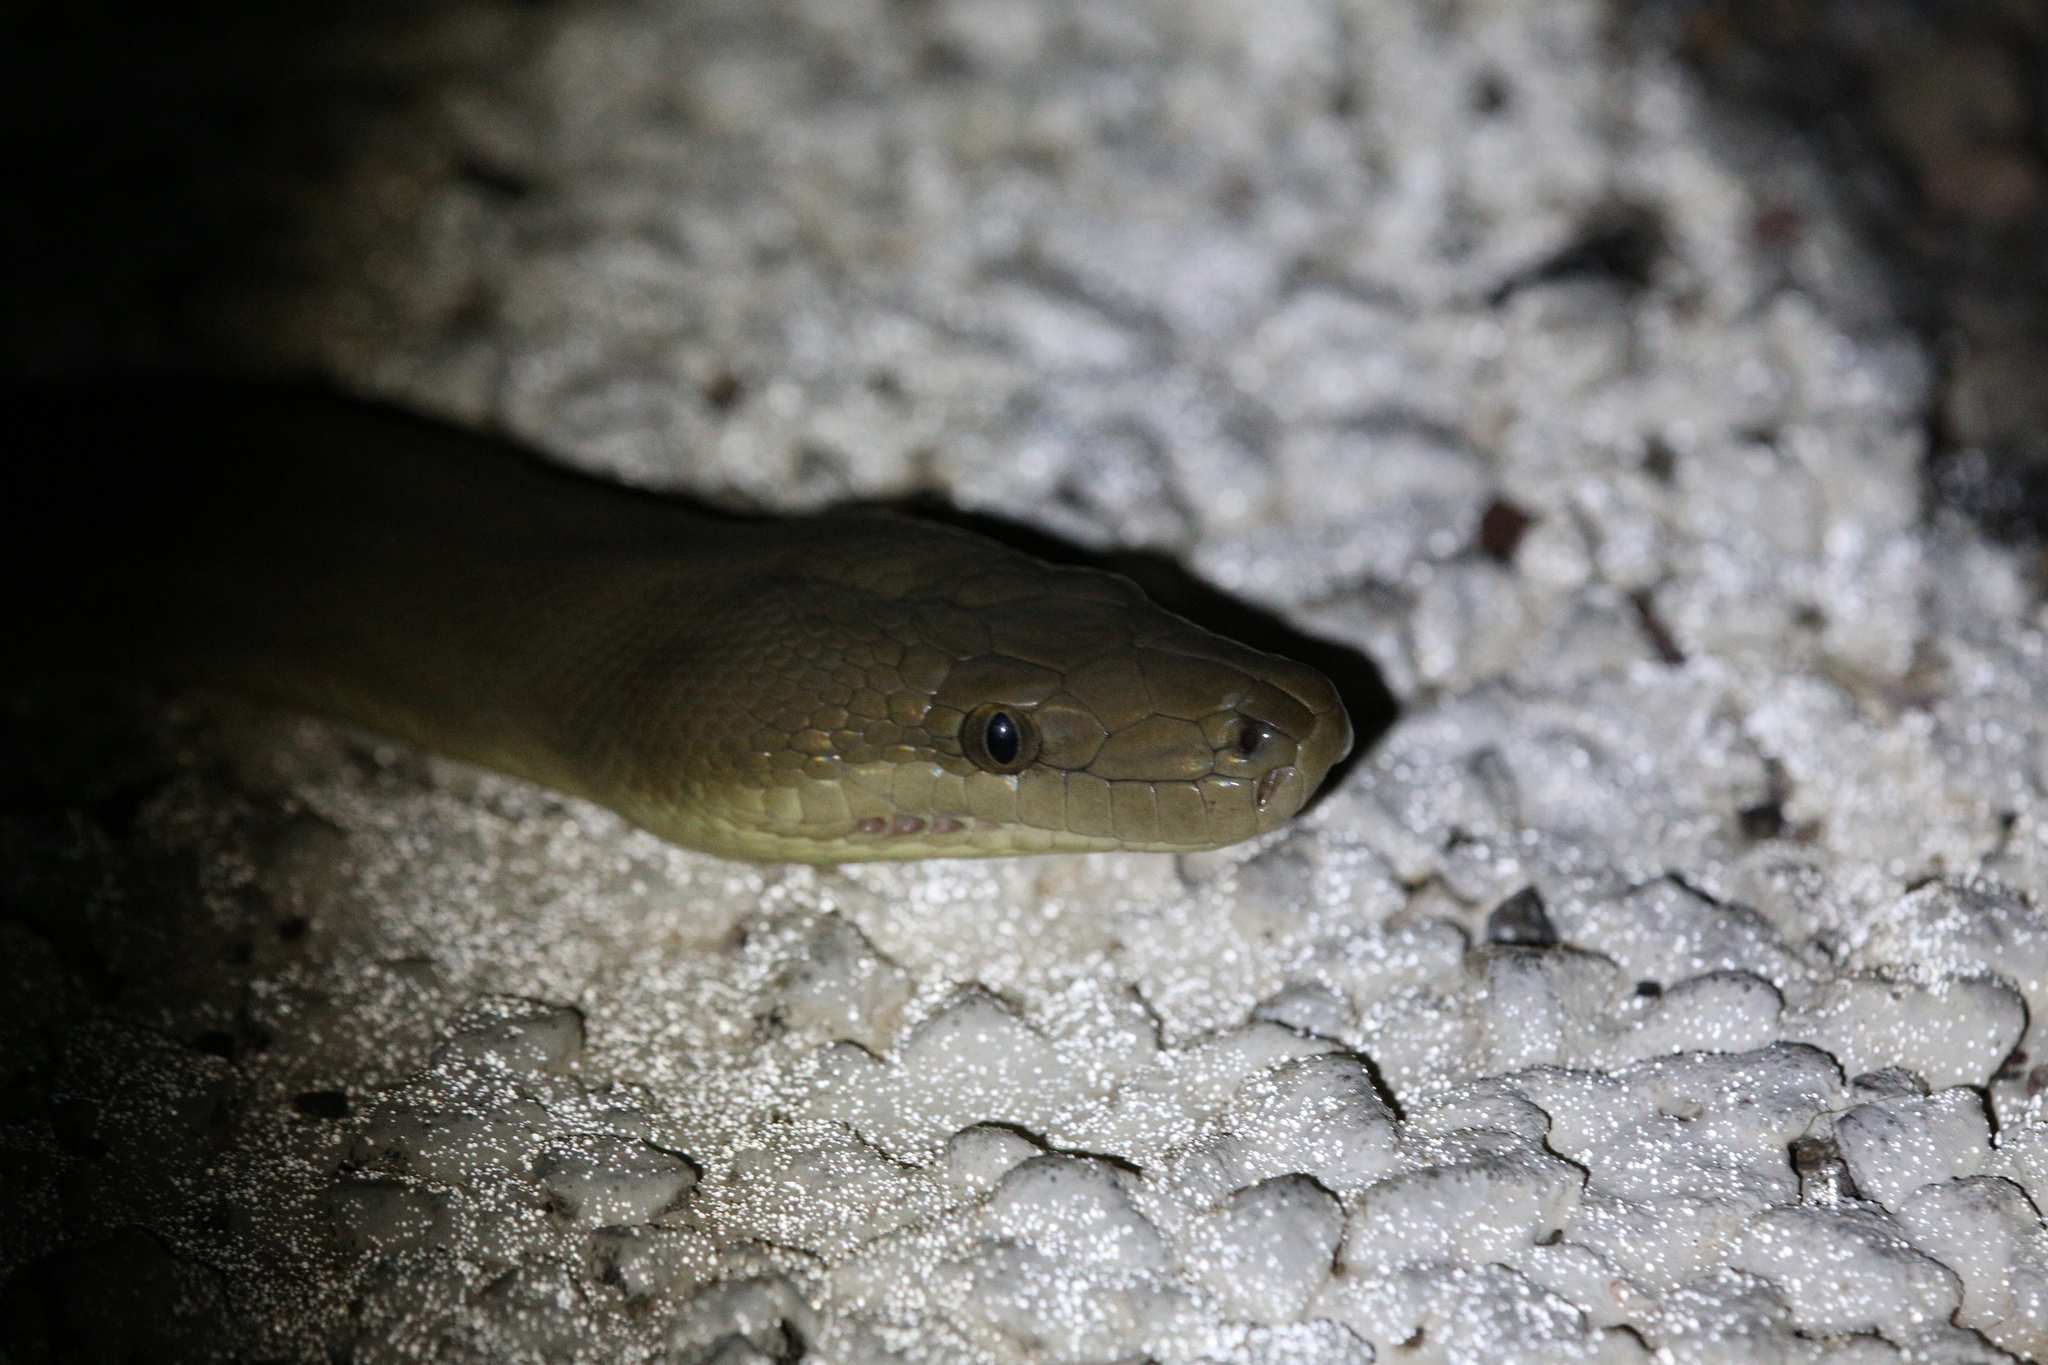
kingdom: Animalia
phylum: Chordata
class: Squamata
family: Pythonidae
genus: Liasis
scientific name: Liasis olivaceus
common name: Olive python
